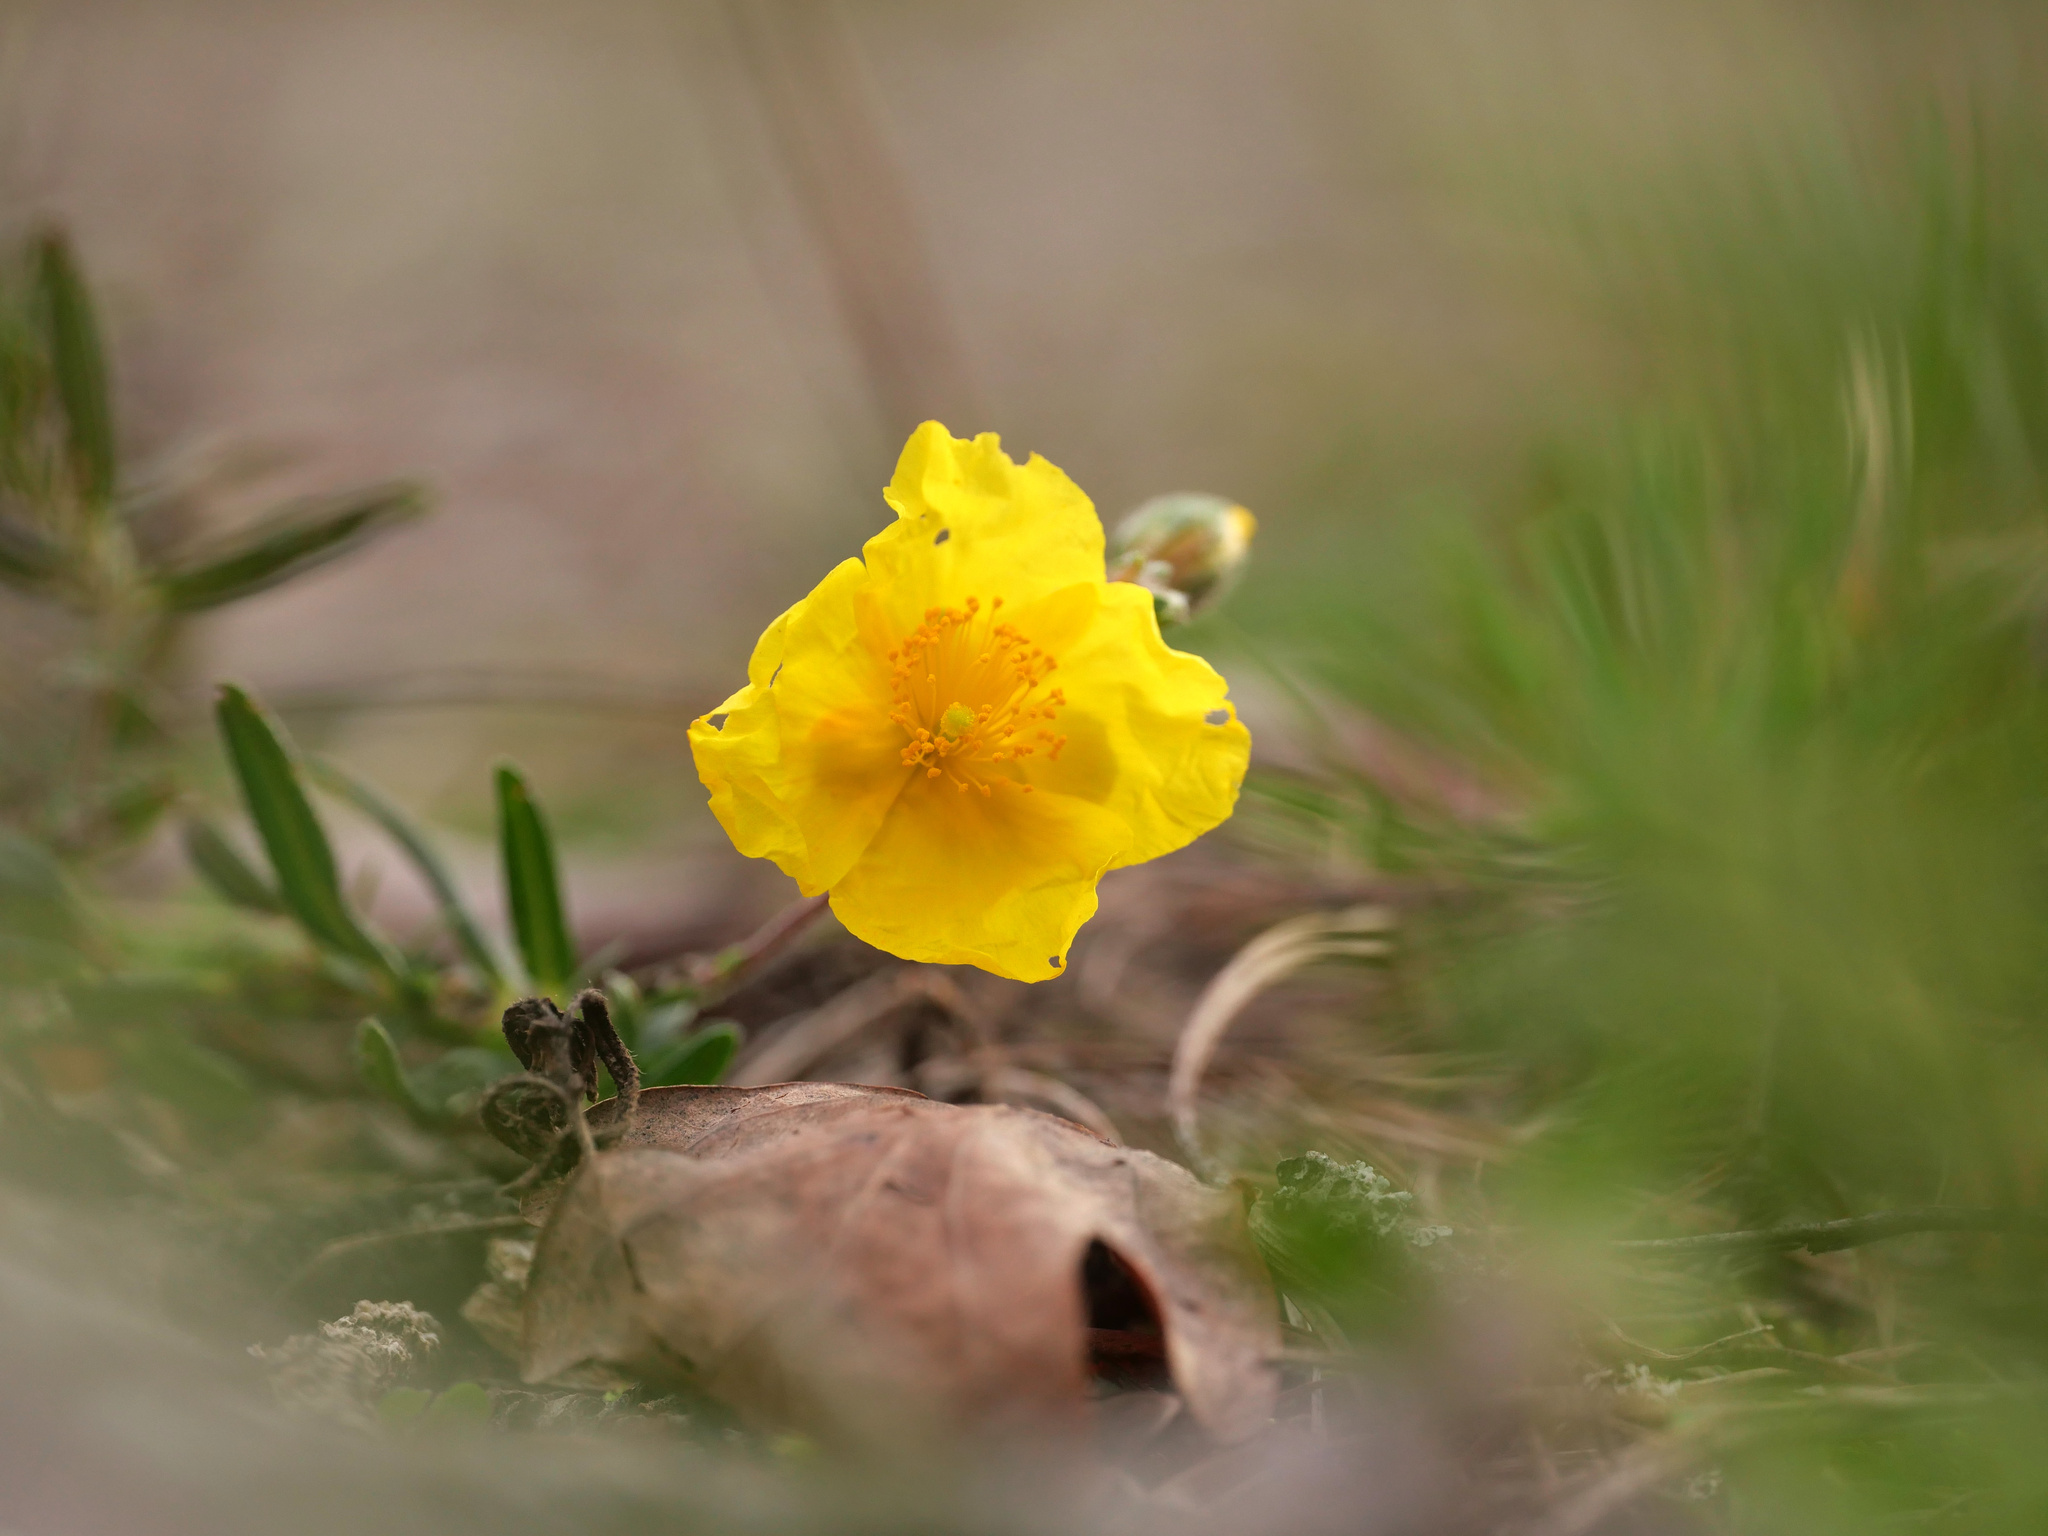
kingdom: Plantae
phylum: Tracheophyta
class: Magnoliopsida
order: Malvales
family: Cistaceae
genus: Helianthemum
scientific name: Helianthemum nummularium
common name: Common rock-rose
